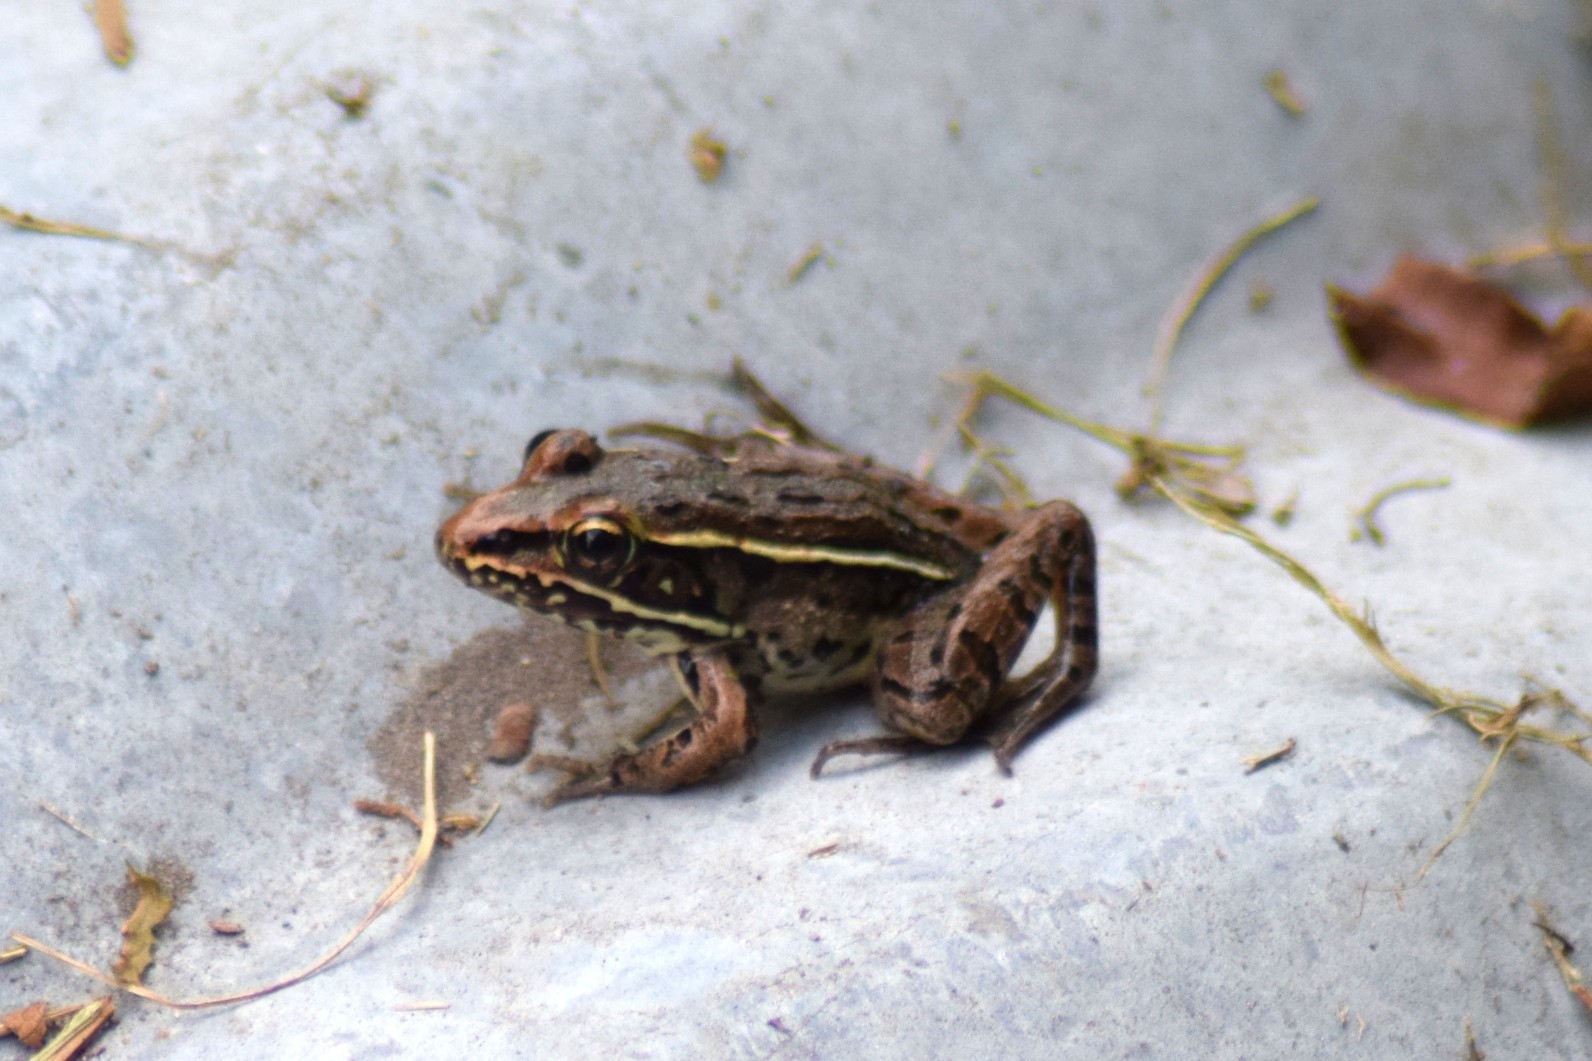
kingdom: Animalia
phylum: Chordata
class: Amphibia
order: Anura
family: Ranidae
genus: Lithobates
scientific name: Lithobates sphenocephalus
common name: Southern leopard frog
